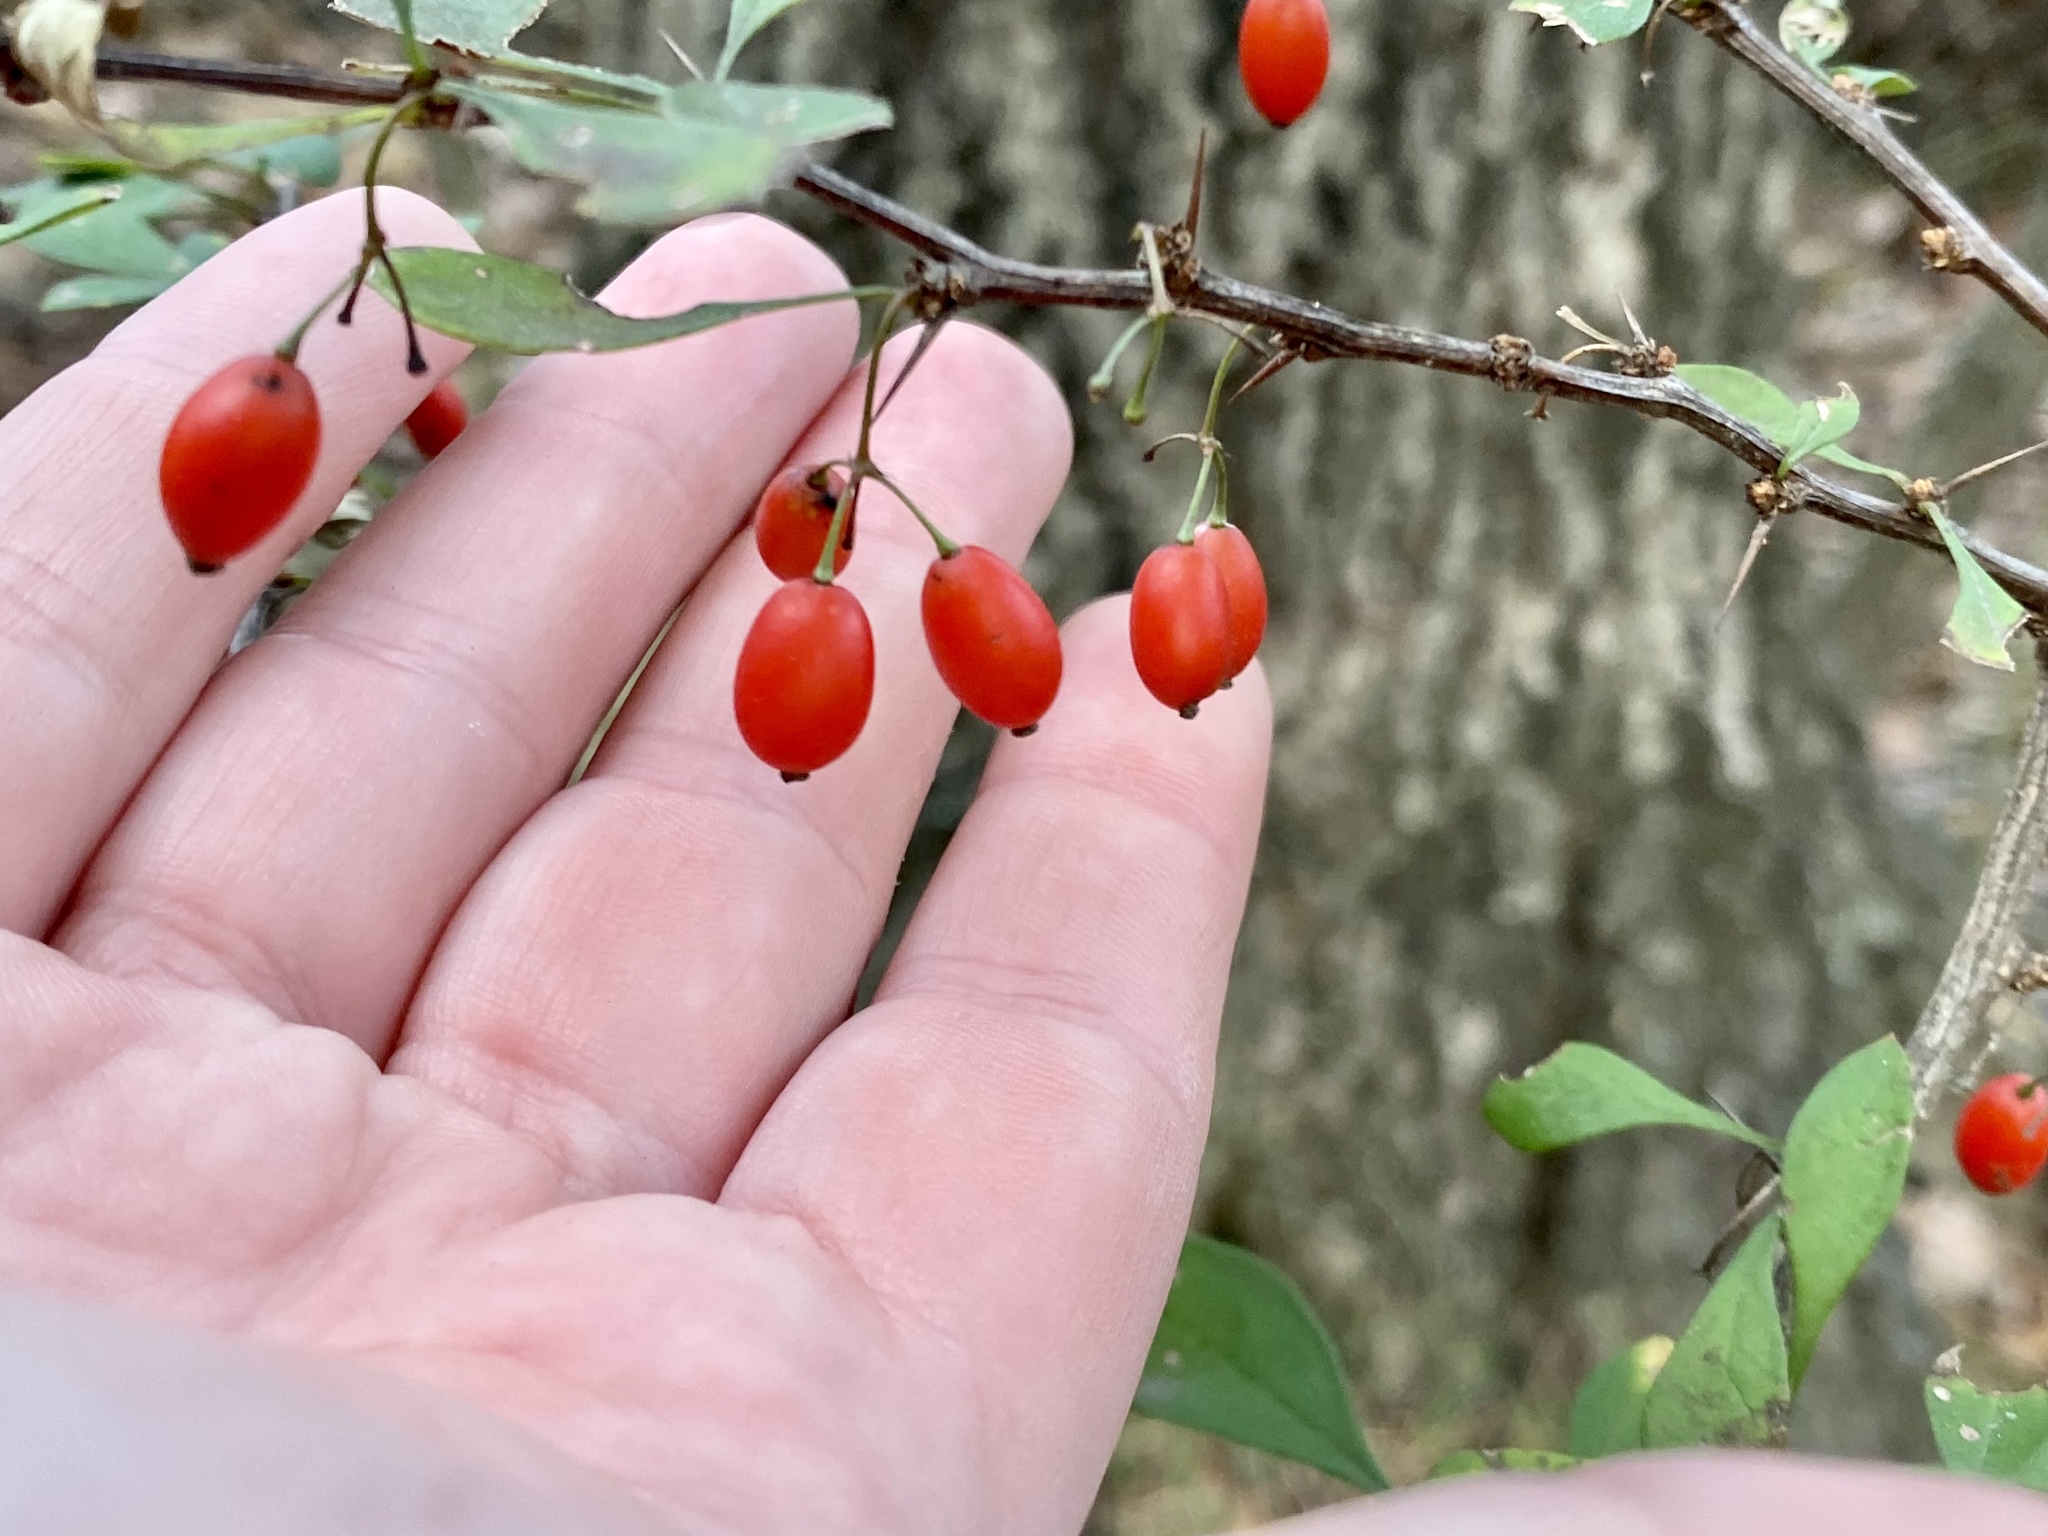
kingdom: Plantae
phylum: Tracheophyta
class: Magnoliopsida
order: Ranunculales
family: Berberidaceae
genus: Berberis
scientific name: Berberis thunbergii
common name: Japanese barberry
